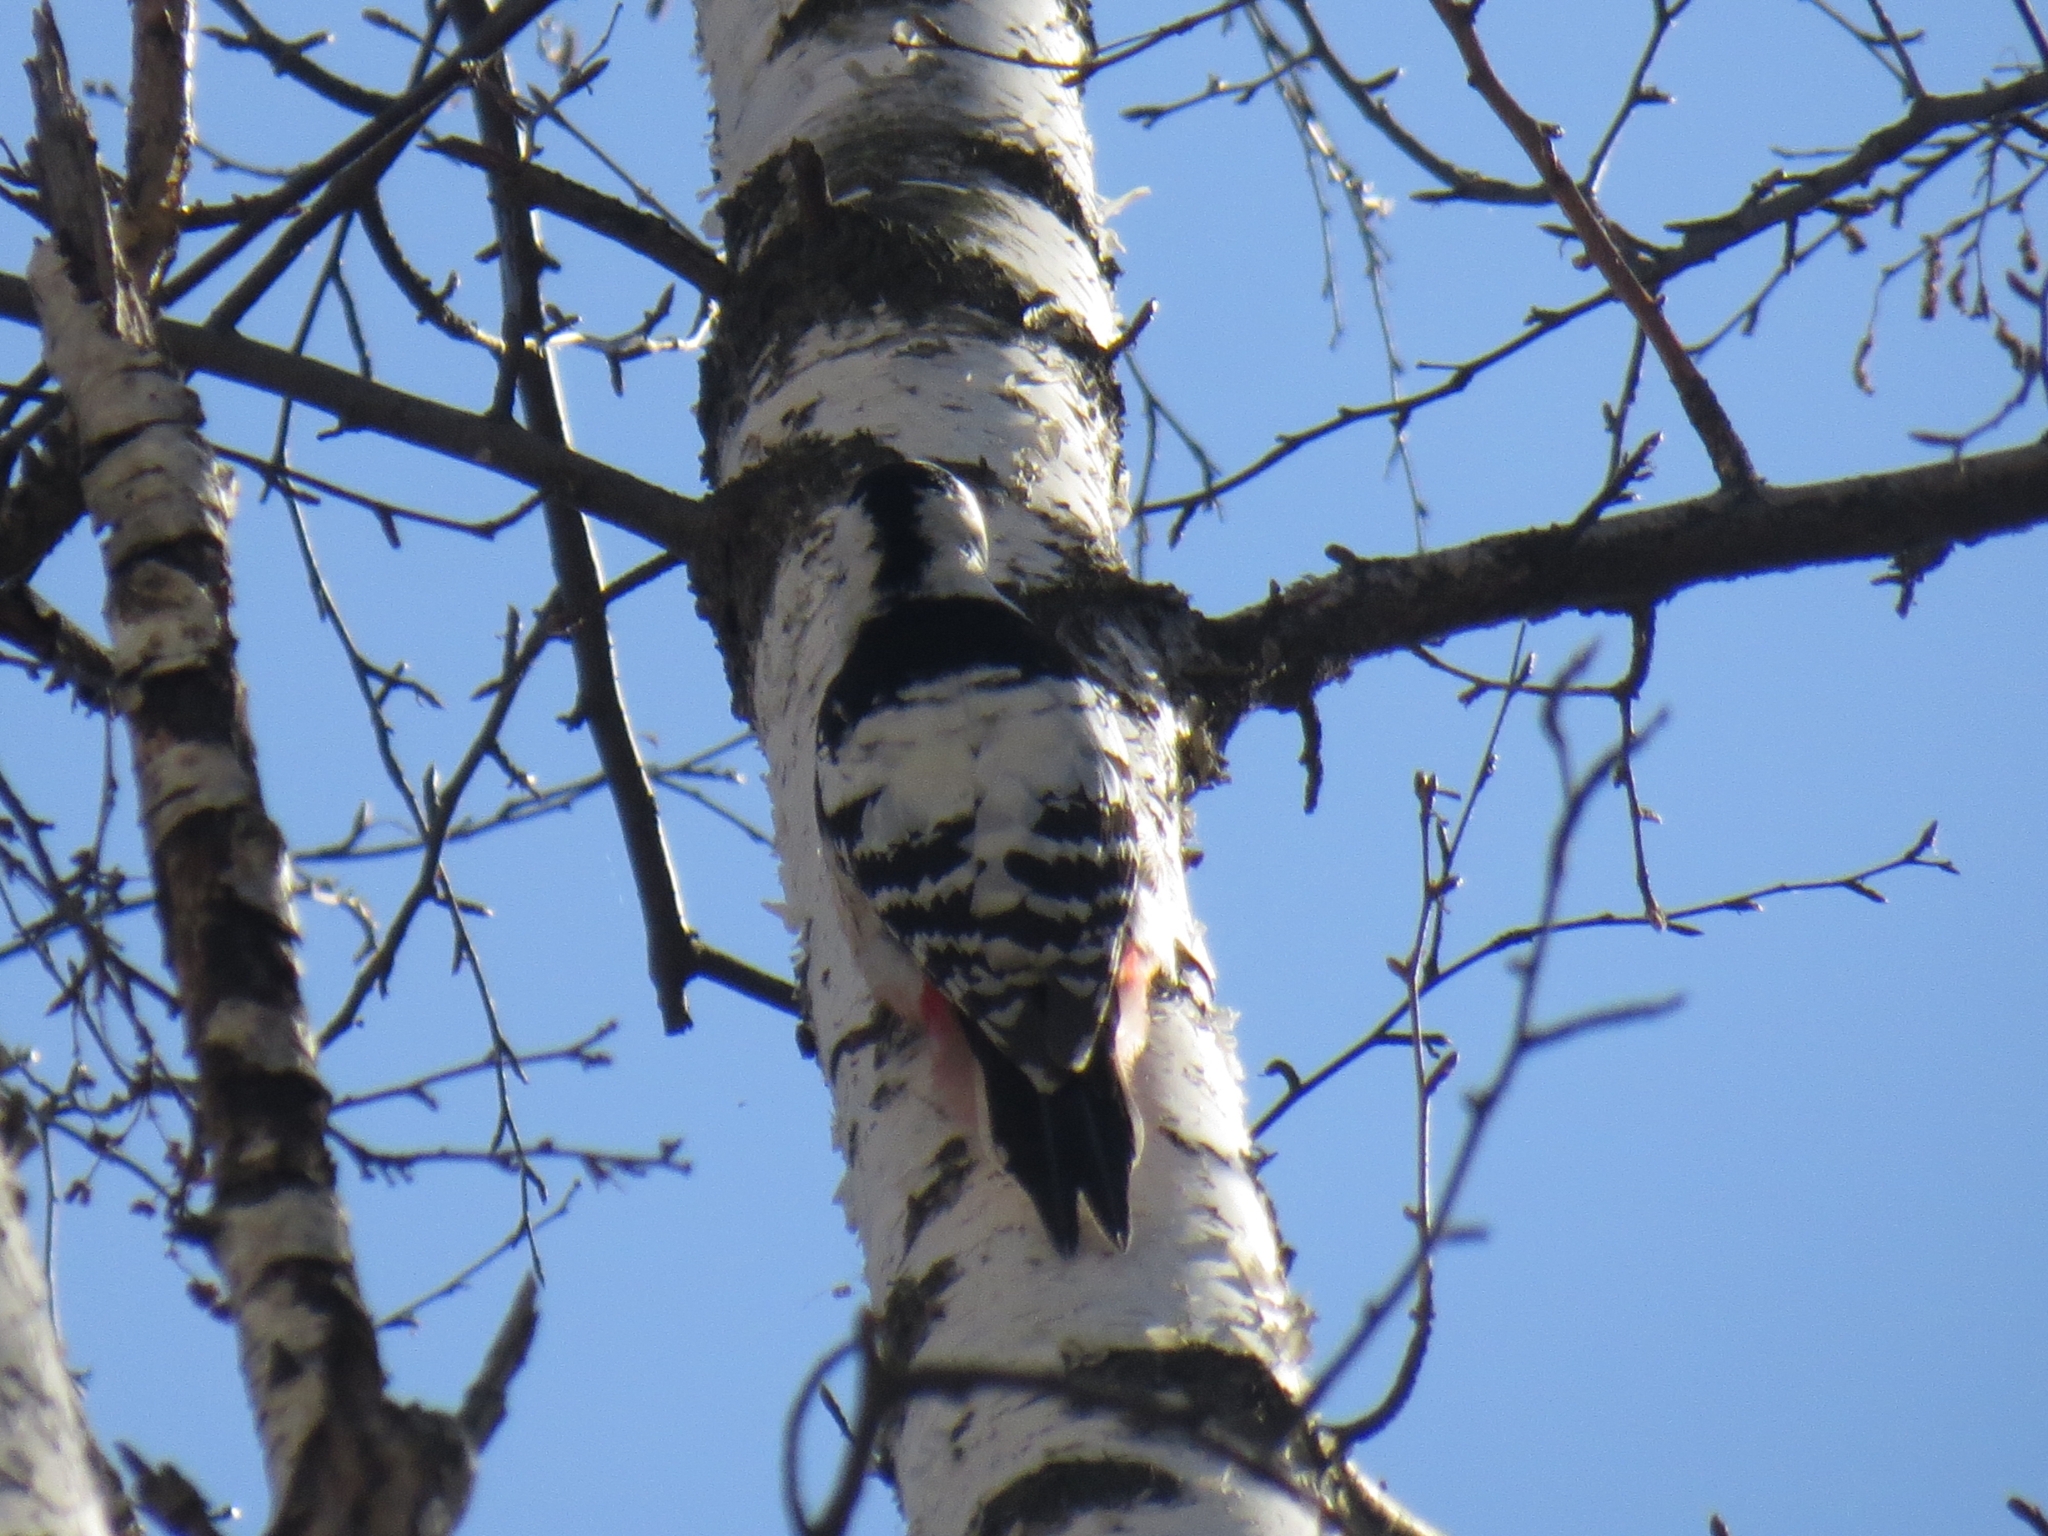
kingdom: Animalia
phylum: Chordata
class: Aves
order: Piciformes
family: Picidae
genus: Dendrocopos
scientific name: Dendrocopos leucotos
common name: White-backed woodpecker
